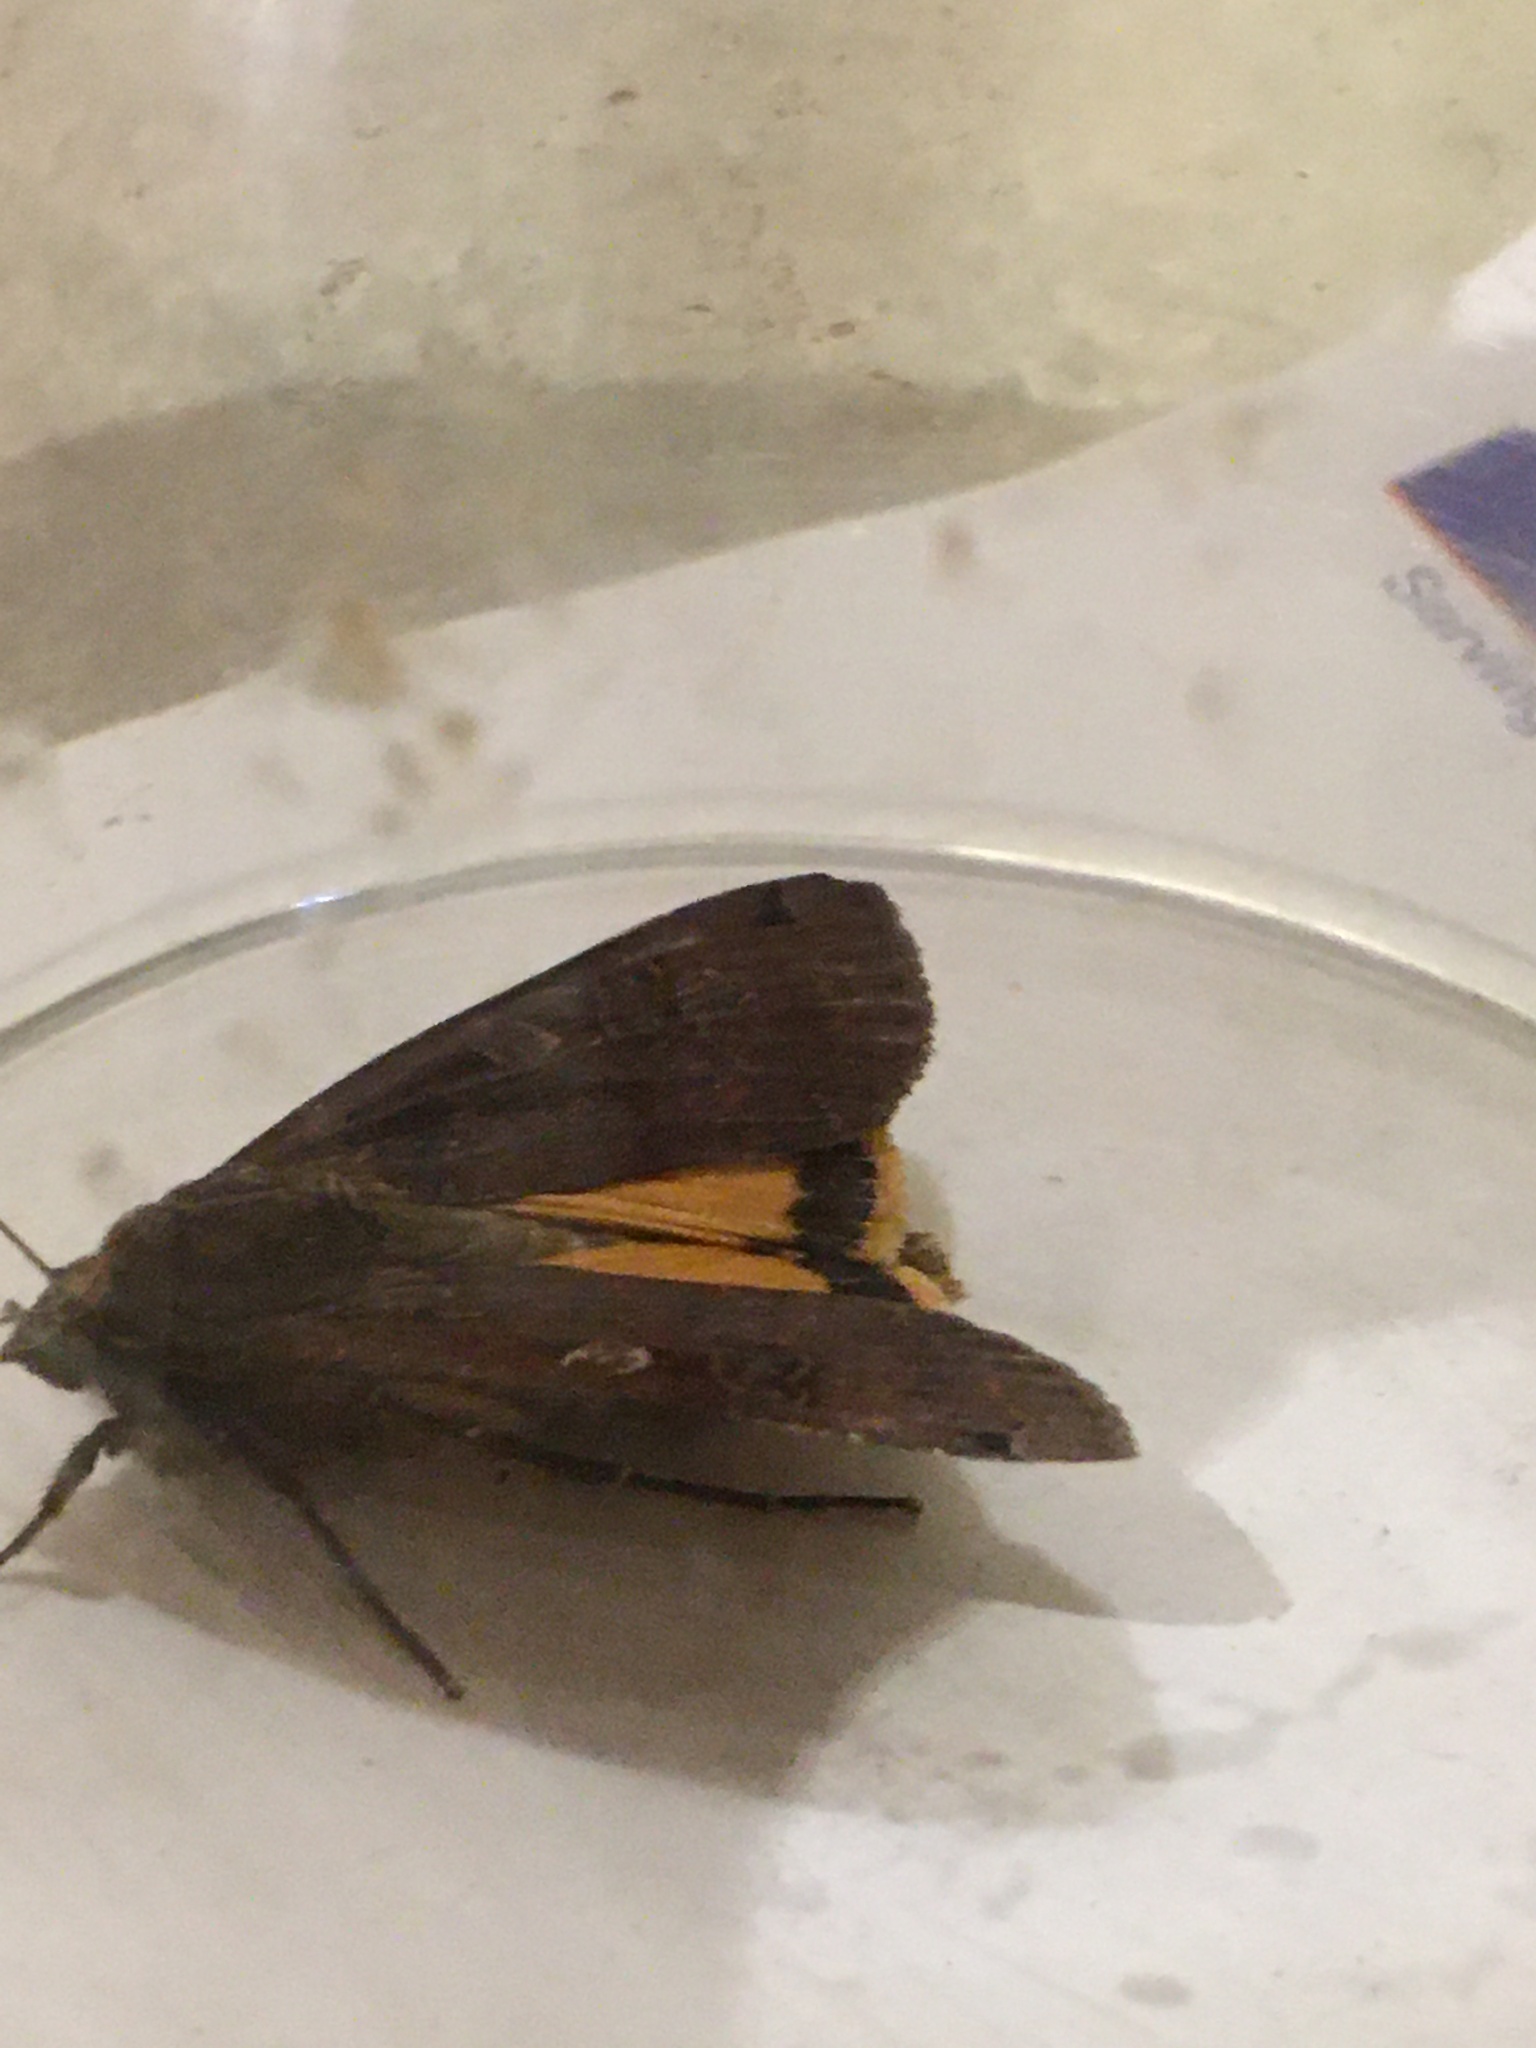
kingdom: Animalia
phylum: Arthropoda
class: Insecta
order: Lepidoptera
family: Noctuidae
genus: Noctua
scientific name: Noctua pronuba
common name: Large yellow underwing
